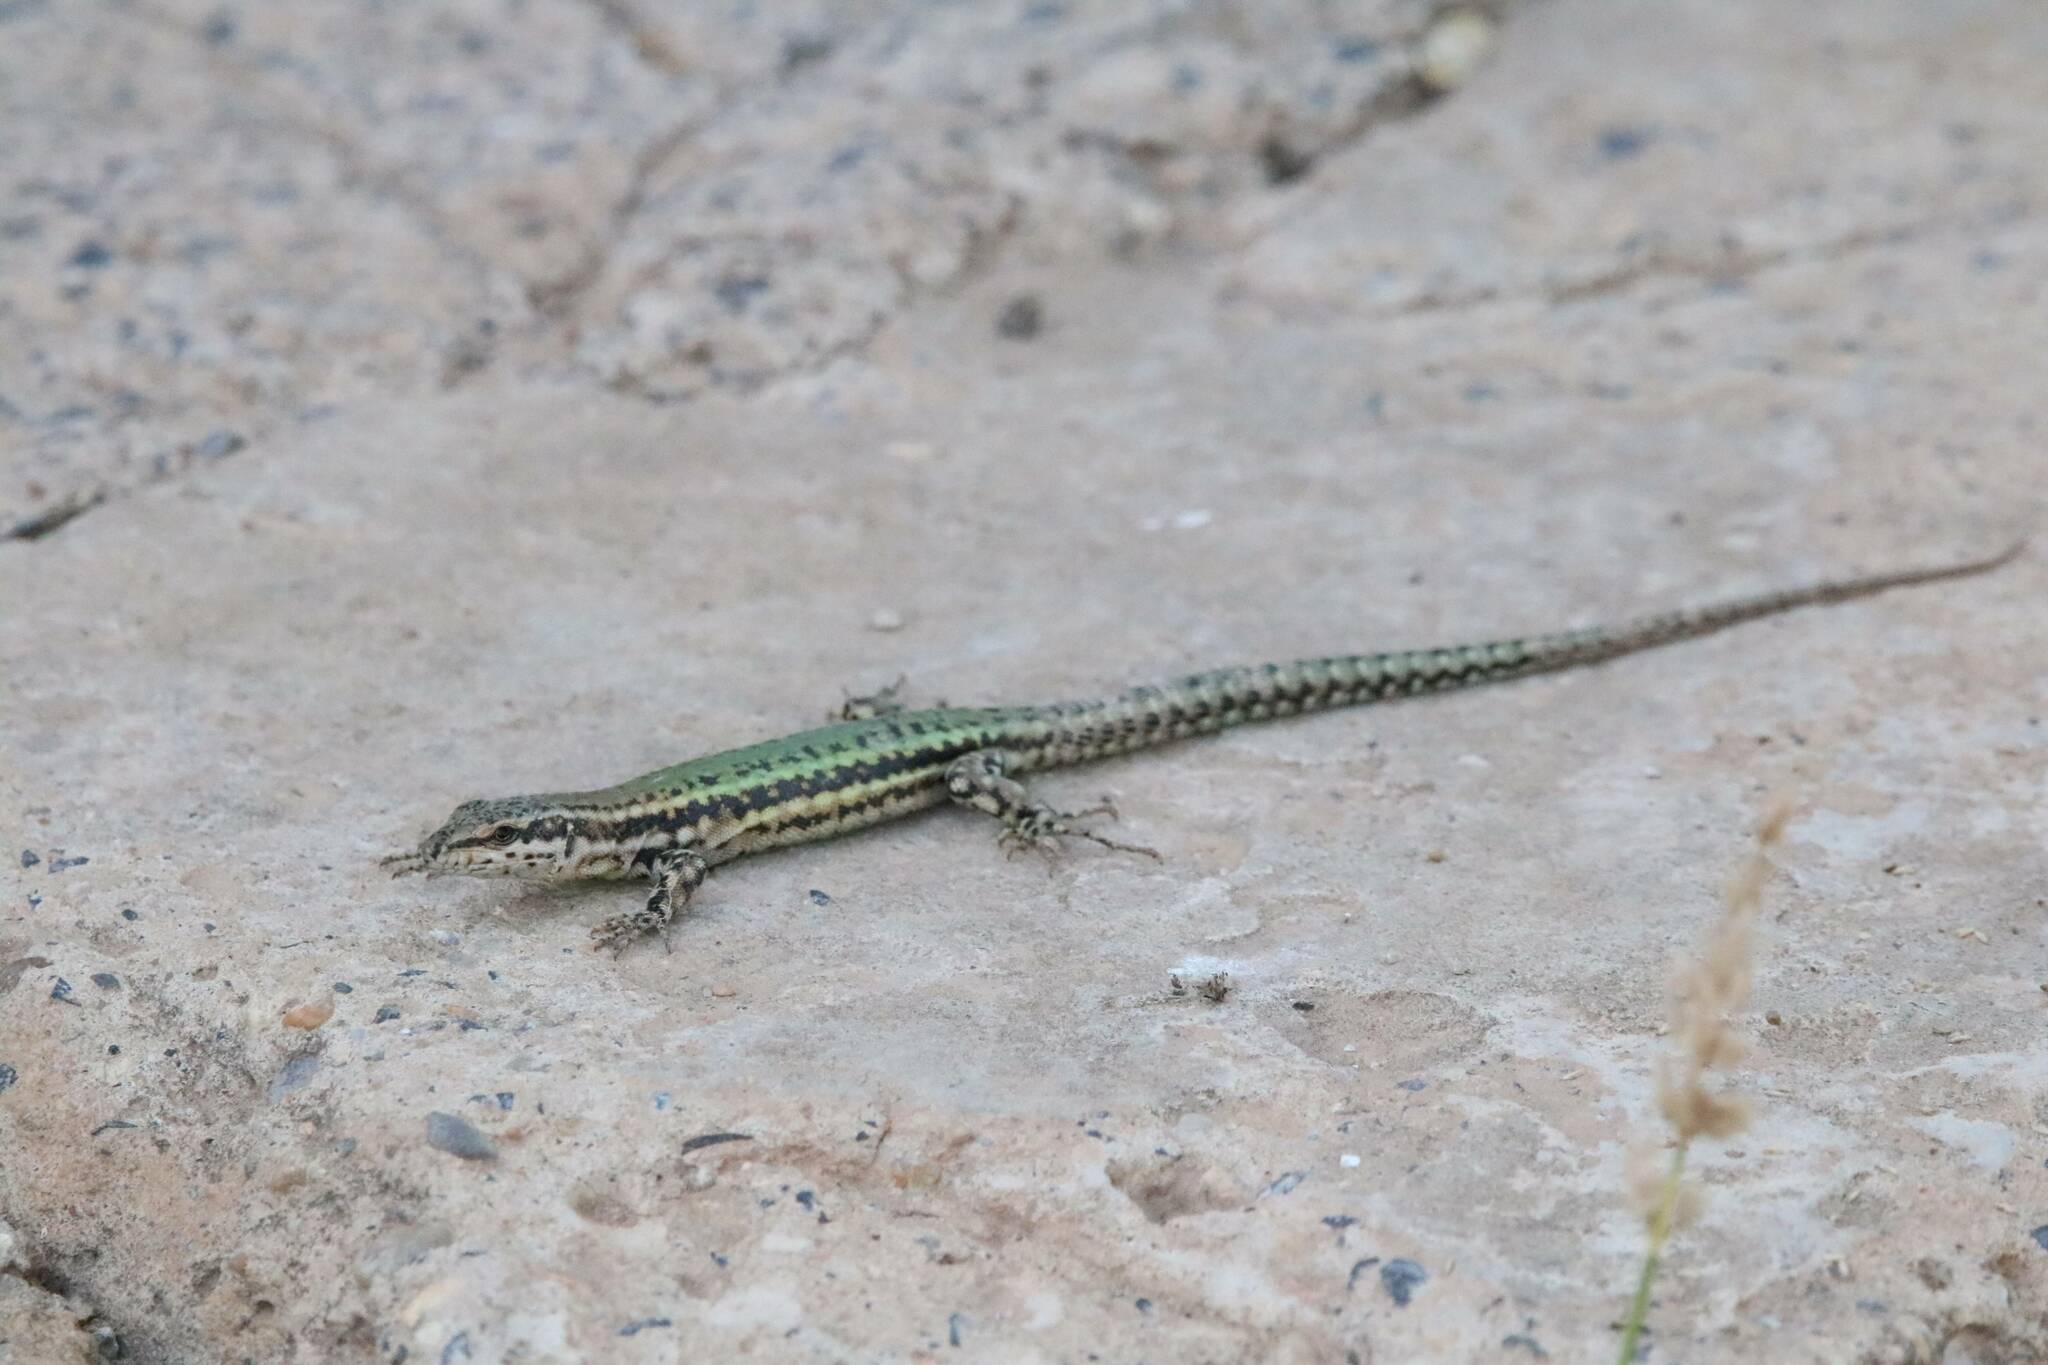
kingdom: Animalia
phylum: Chordata
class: Squamata
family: Lacertidae
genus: Podarcis
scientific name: Podarcis vaucheri
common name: Vaucher's wall lizard
